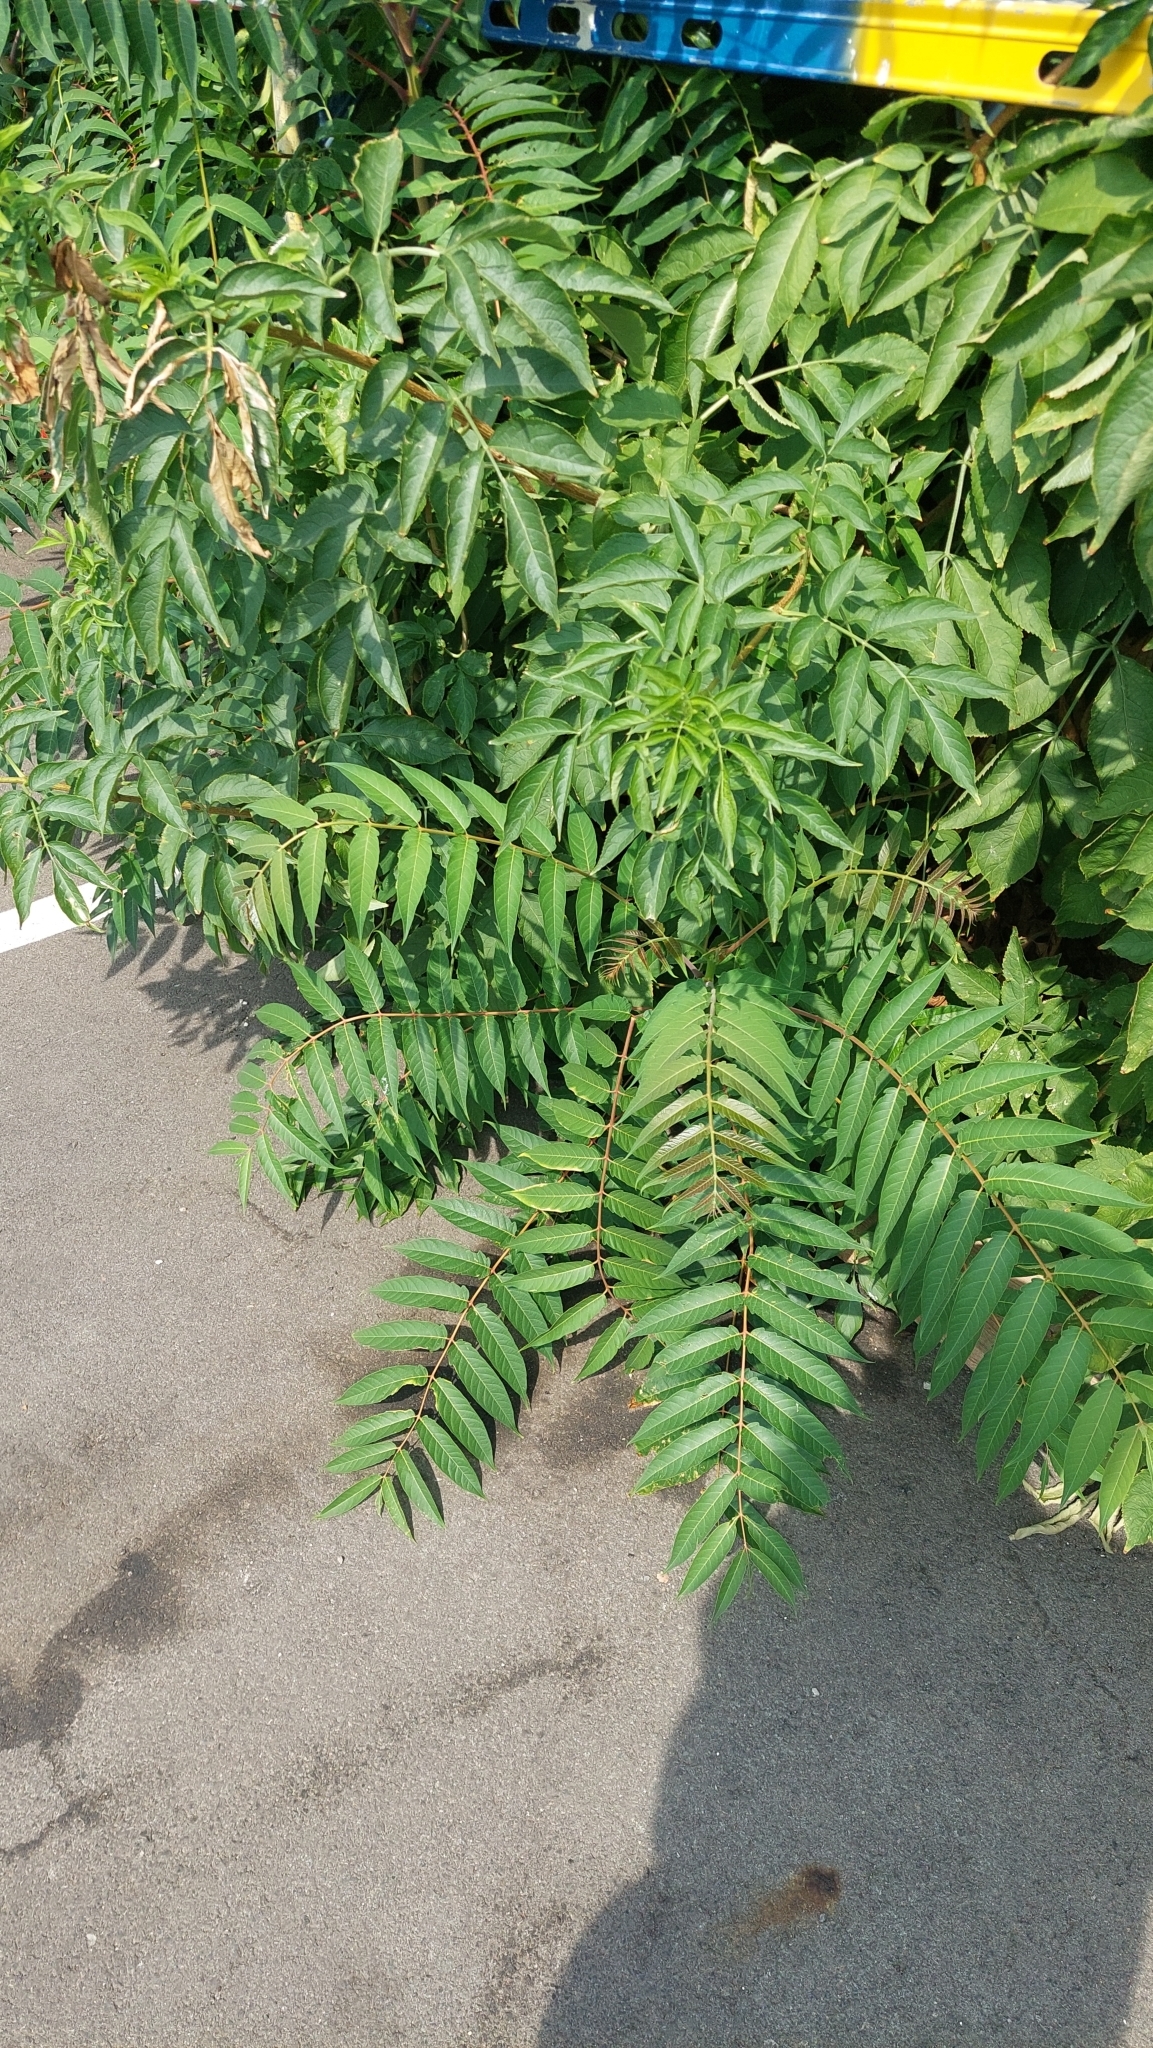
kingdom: Plantae
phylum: Tracheophyta
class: Magnoliopsida
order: Sapindales
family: Simaroubaceae
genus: Ailanthus
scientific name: Ailanthus altissima
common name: Tree-of-heaven
